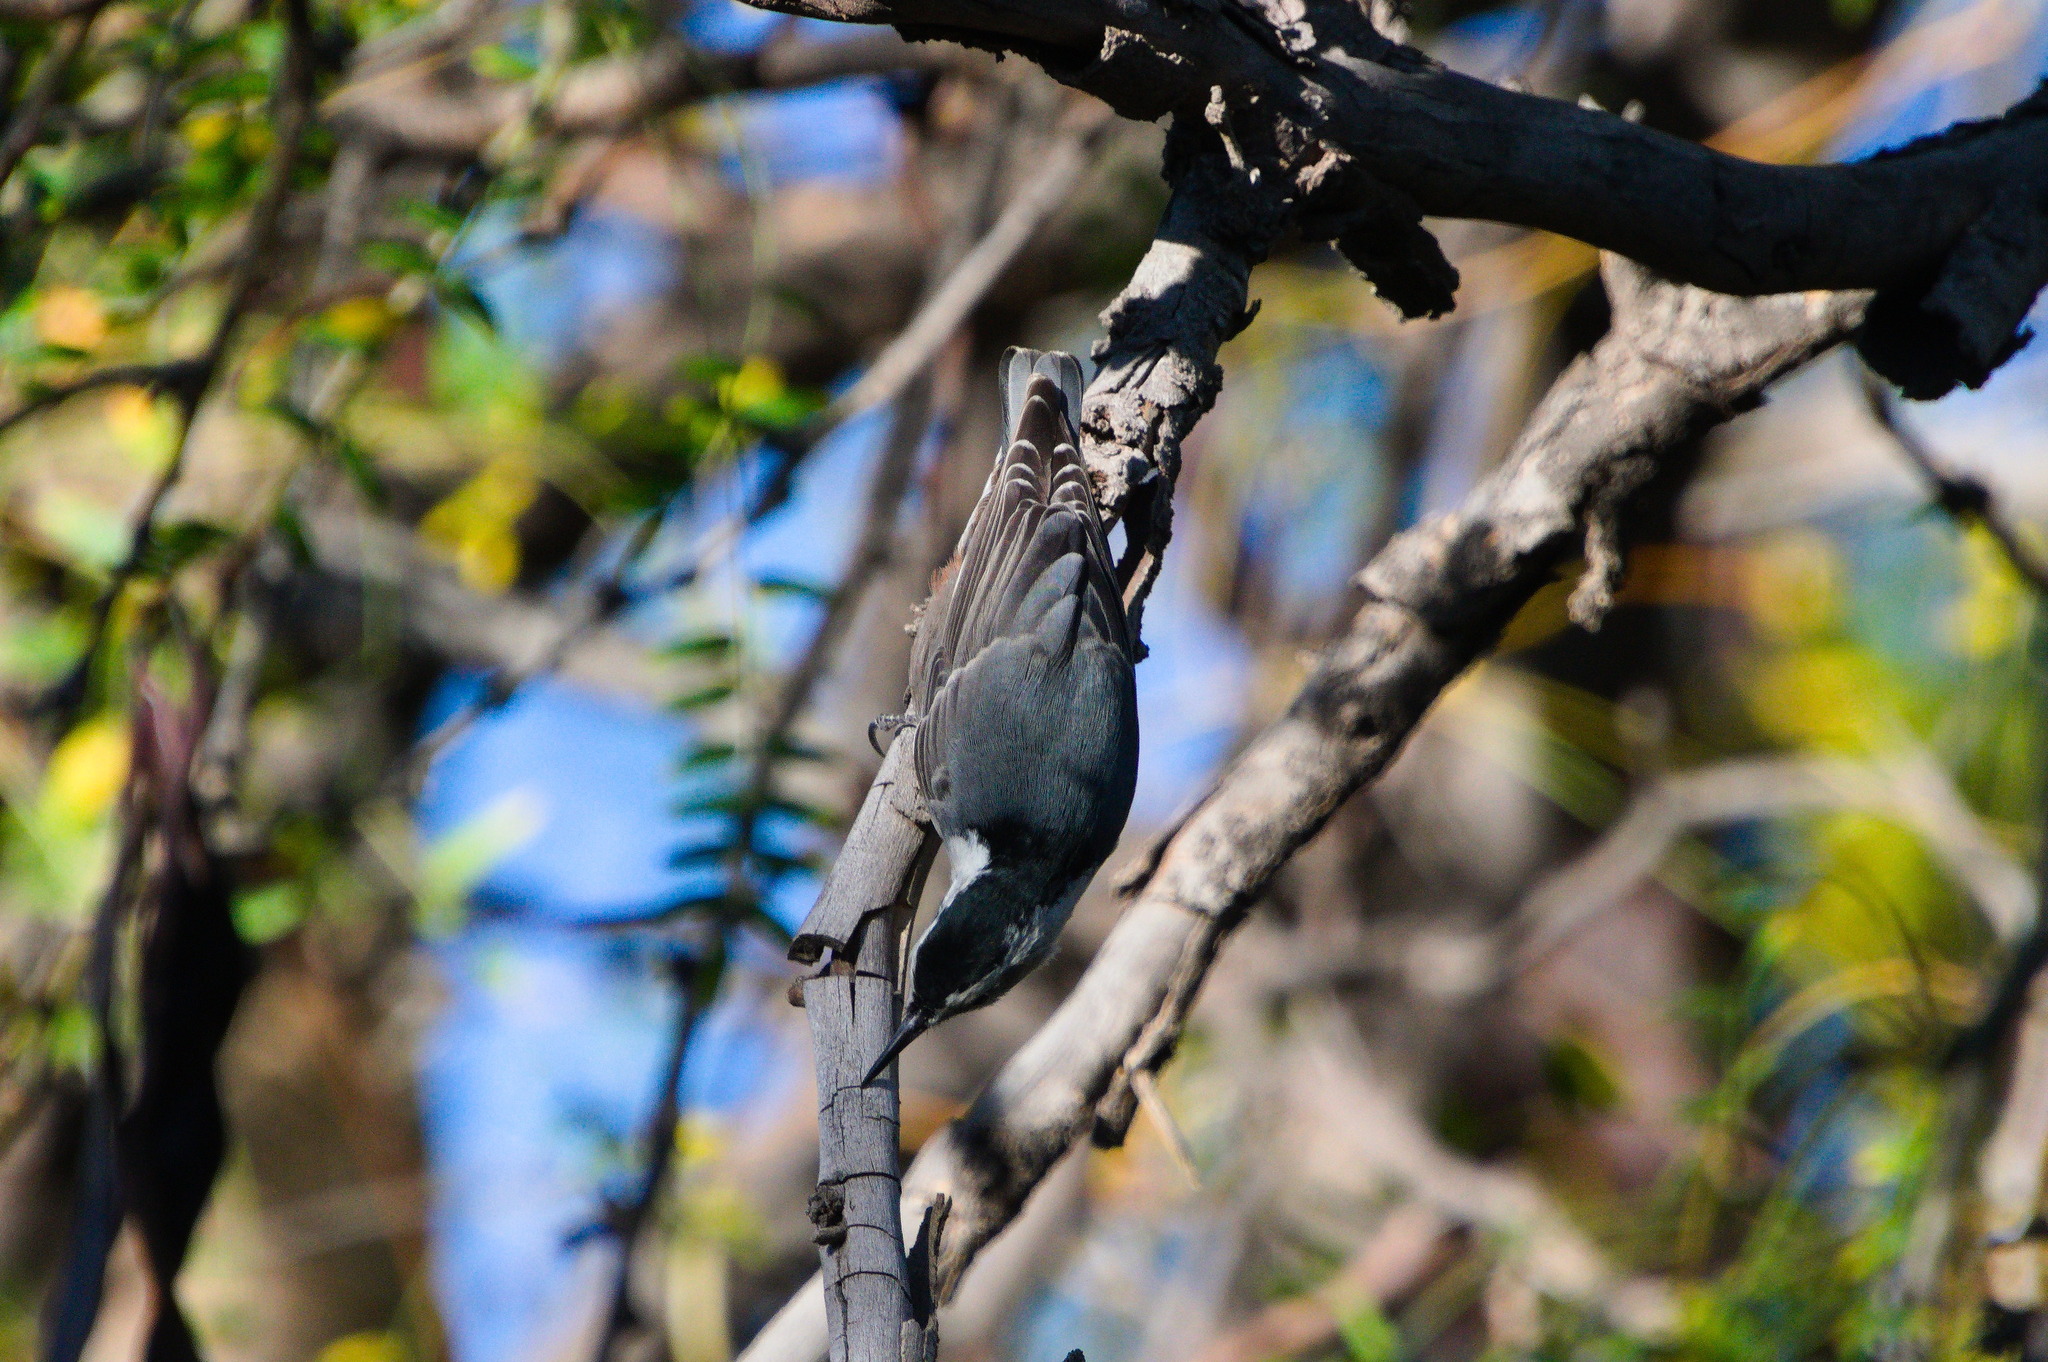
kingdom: Animalia
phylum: Chordata
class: Aves
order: Passeriformes
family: Sittidae
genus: Sitta
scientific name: Sitta carolinensis
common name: White-breasted nuthatch
